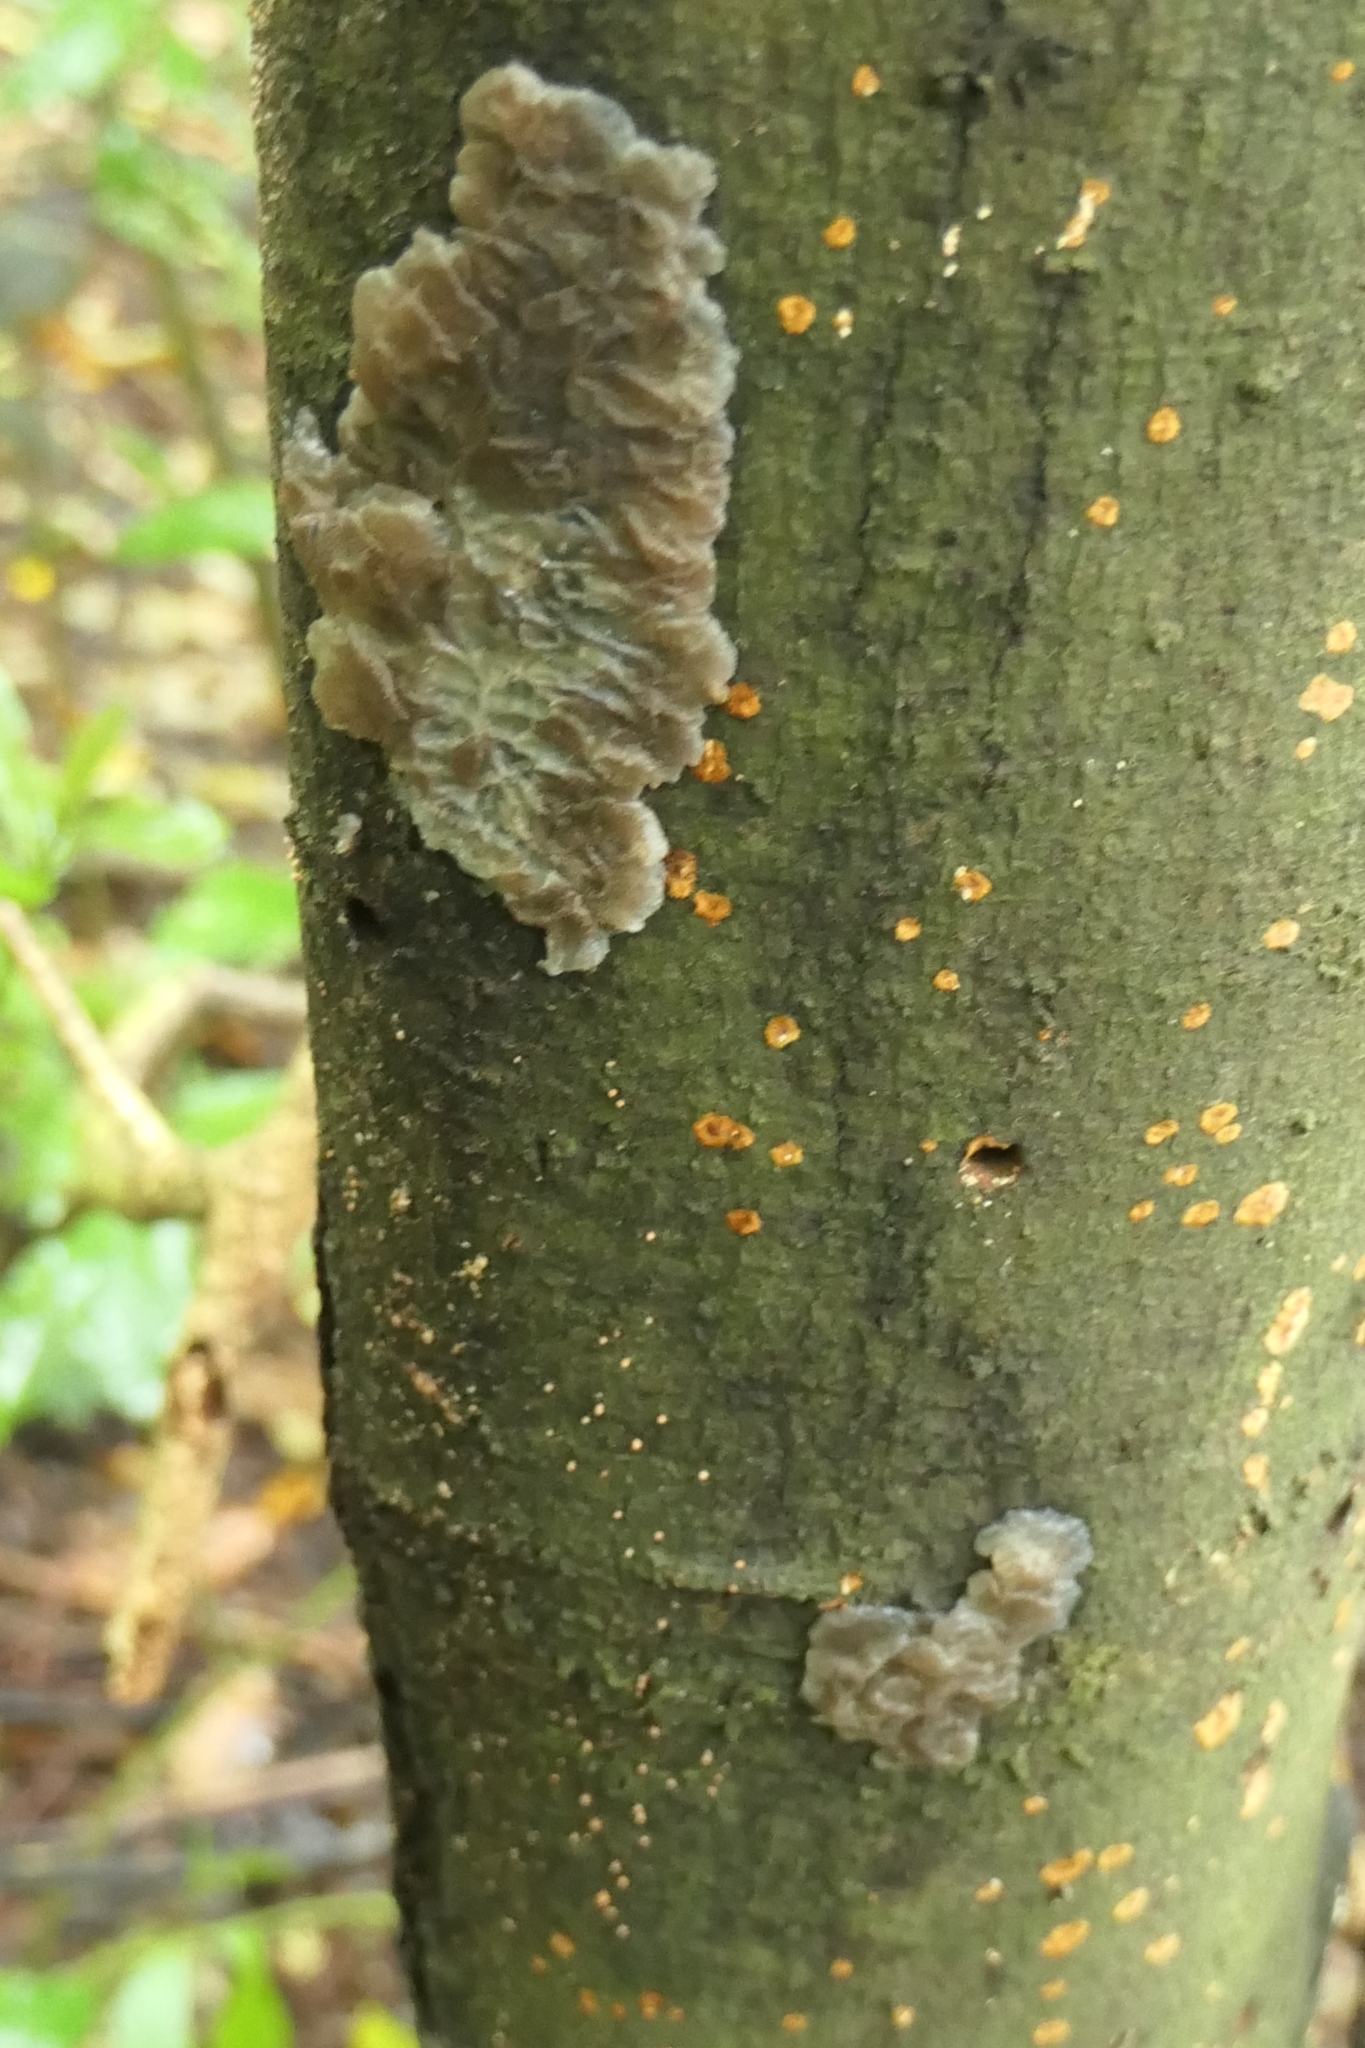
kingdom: Fungi
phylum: Basidiomycota
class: Agaricomycetes
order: Auriculariales
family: Auriculariaceae
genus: Tremellochaete
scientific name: Tremellochaete
